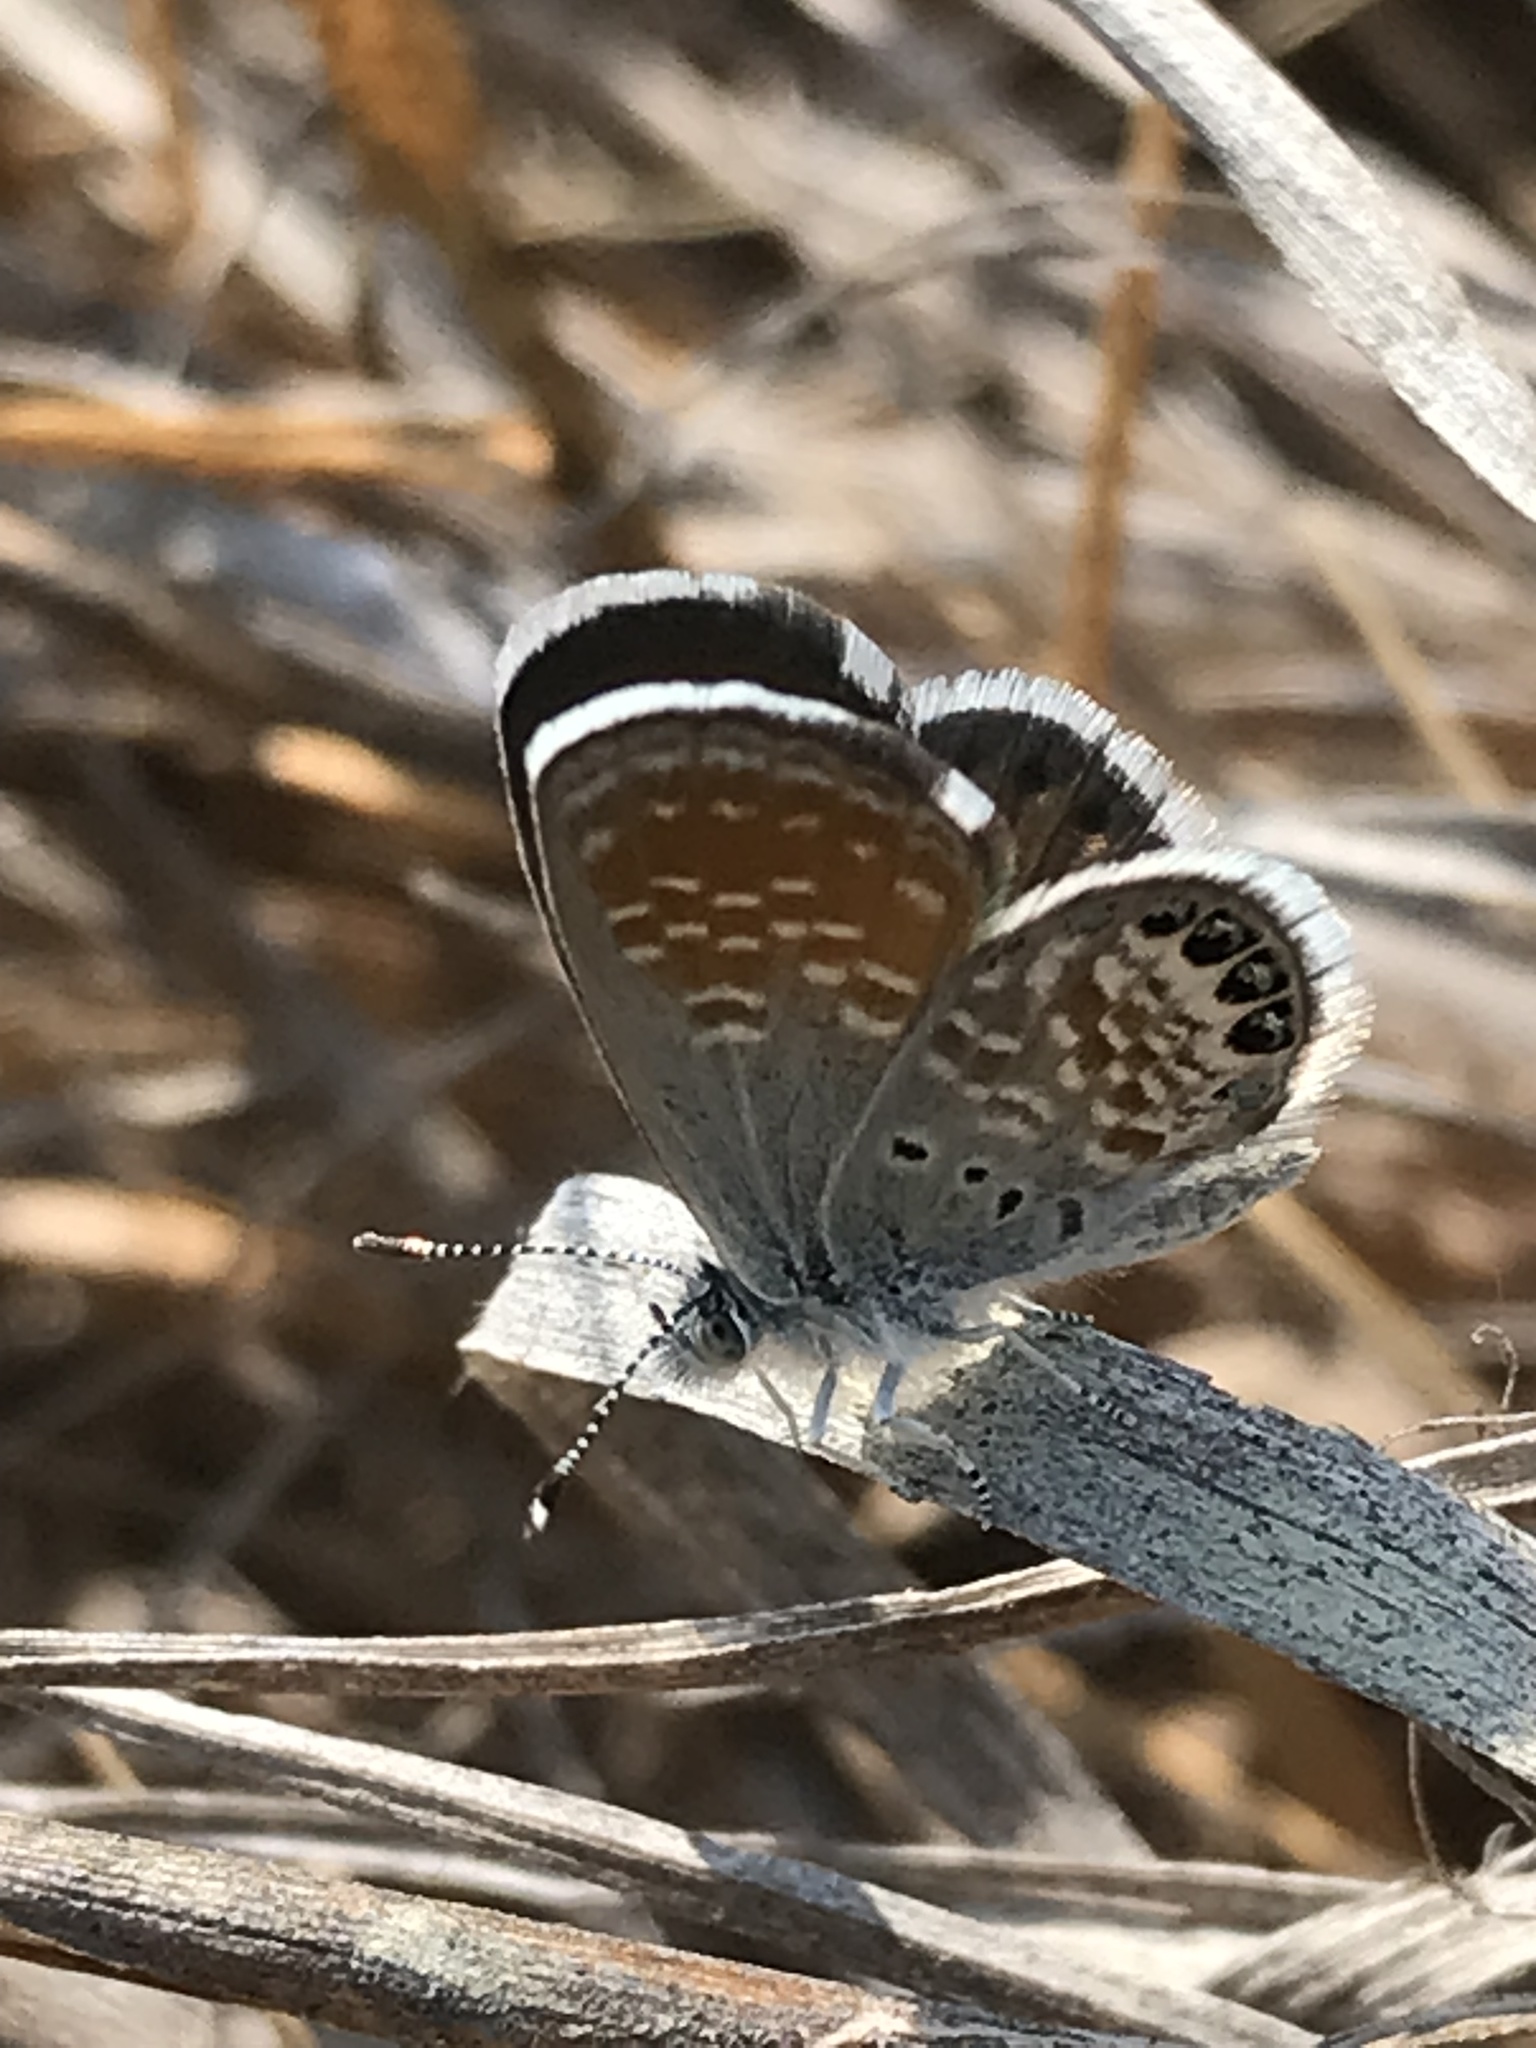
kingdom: Animalia
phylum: Arthropoda
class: Insecta
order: Lepidoptera
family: Lycaenidae
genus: Brephidium
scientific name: Brephidium exilis
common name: Pygmy blue
